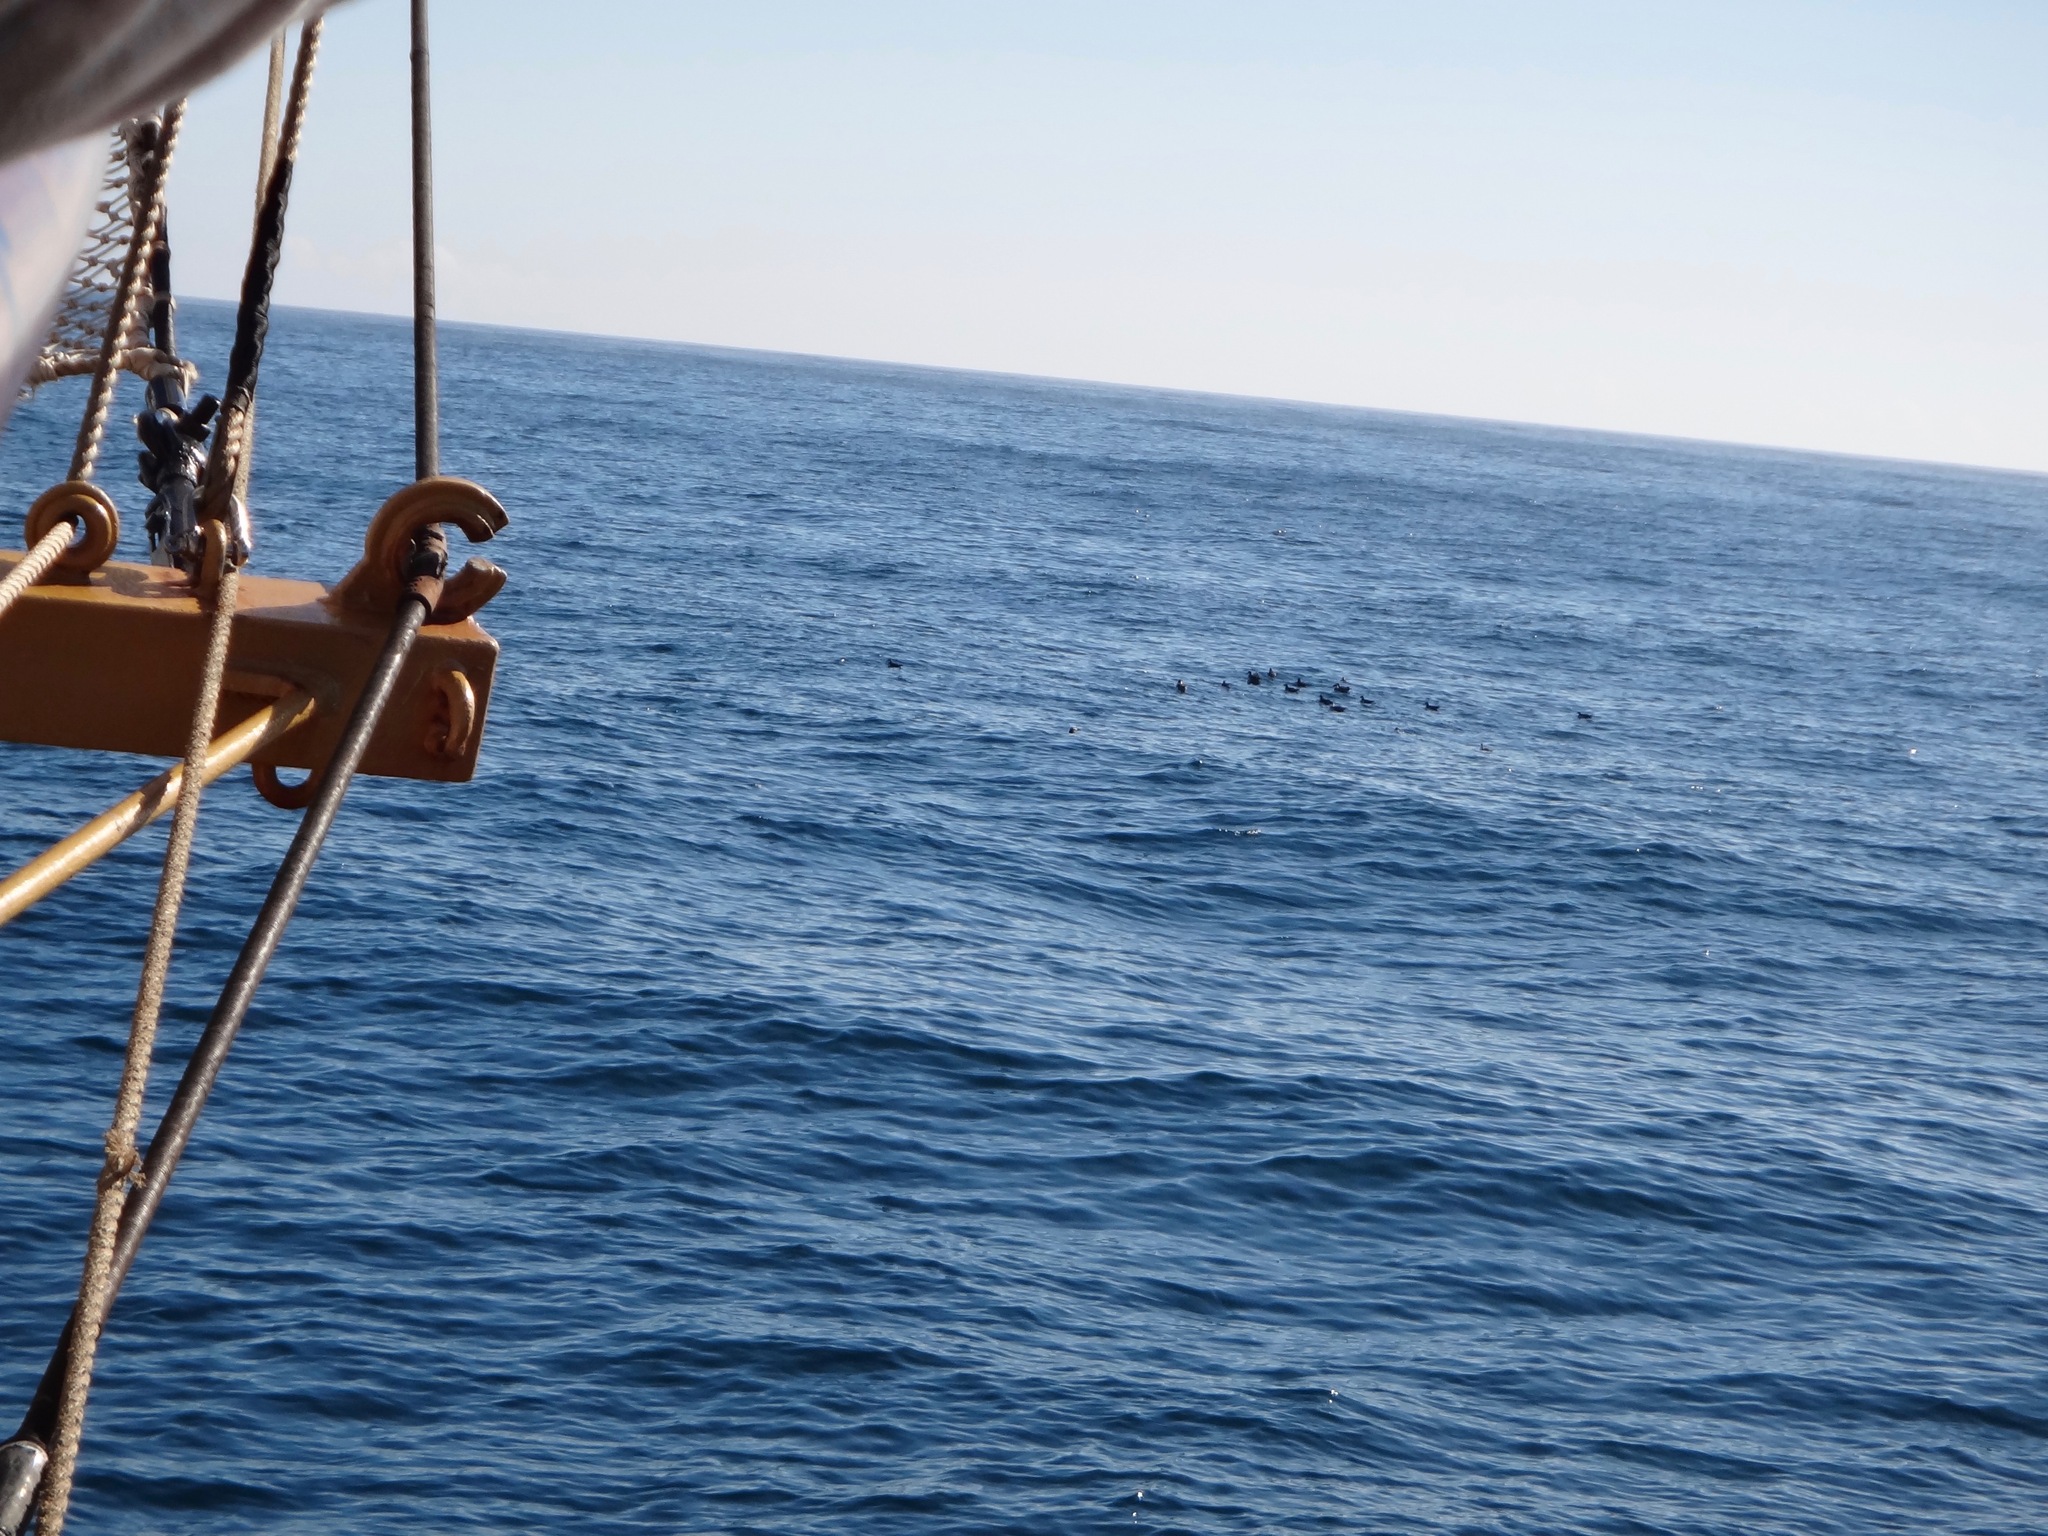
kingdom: Animalia
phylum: Chordata
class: Aves
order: Sphenisciformes
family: Spheniscidae
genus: Spheniscus
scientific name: Spheniscus magellanicus
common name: Magellanic penguin
